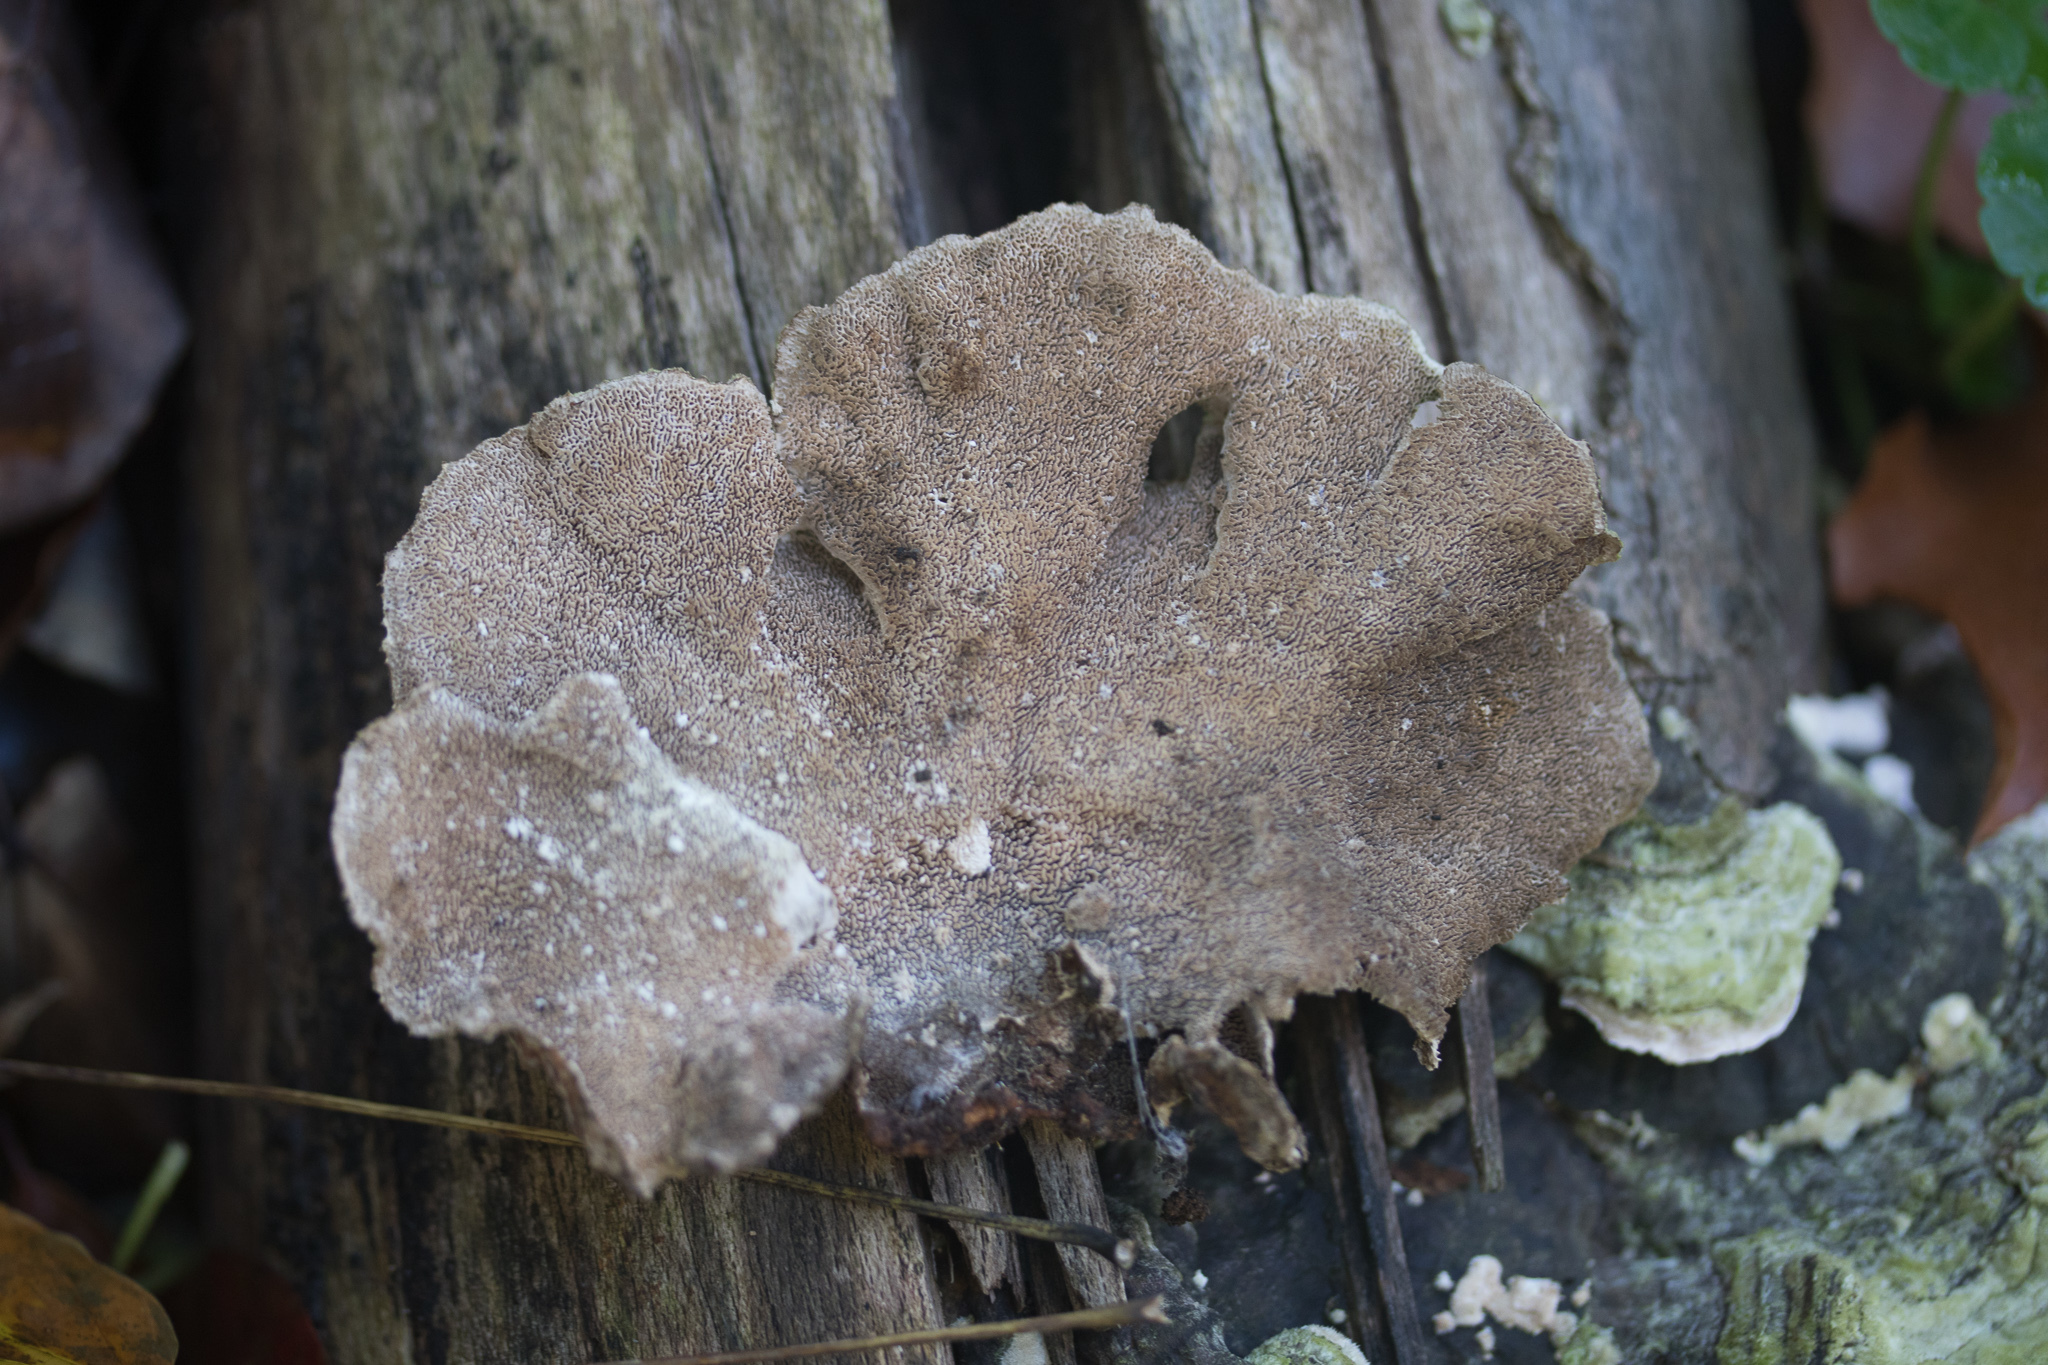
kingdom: Fungi
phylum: Basidiomycota
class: Agaricomycetes
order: Polyporales
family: Cerrenaceae
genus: Cerrena
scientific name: Cerrena unicolor
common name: Mossy maze polypore
